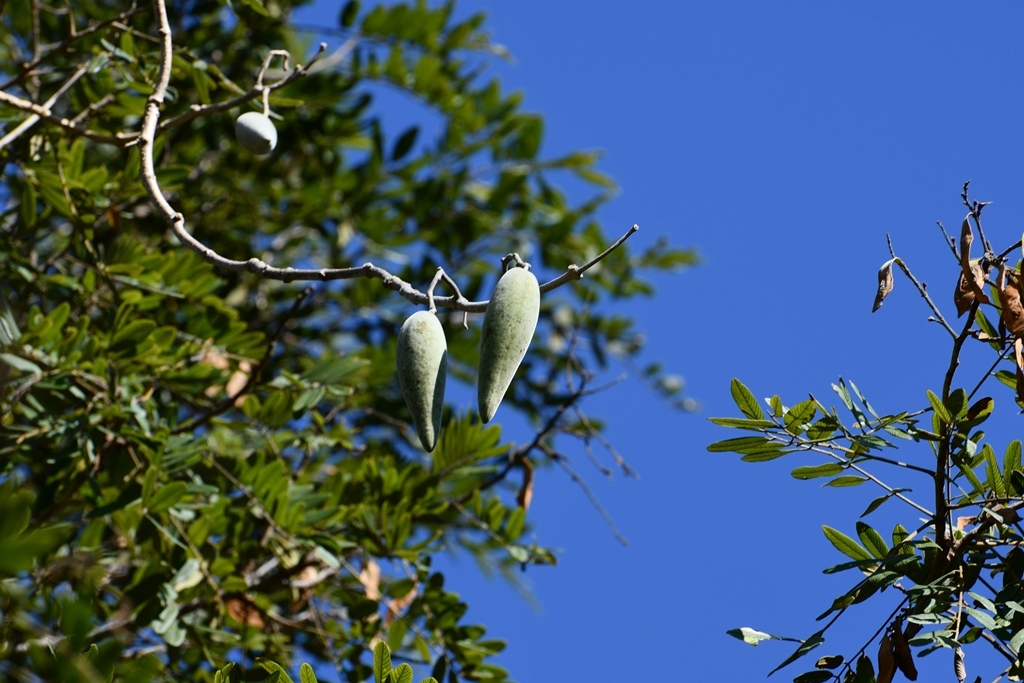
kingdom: Plantae
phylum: Tracheophyta
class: Magnoliopsida
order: Gentianales
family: Apocynaceae
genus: Ruehssia
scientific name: Ruehssia mexicana
